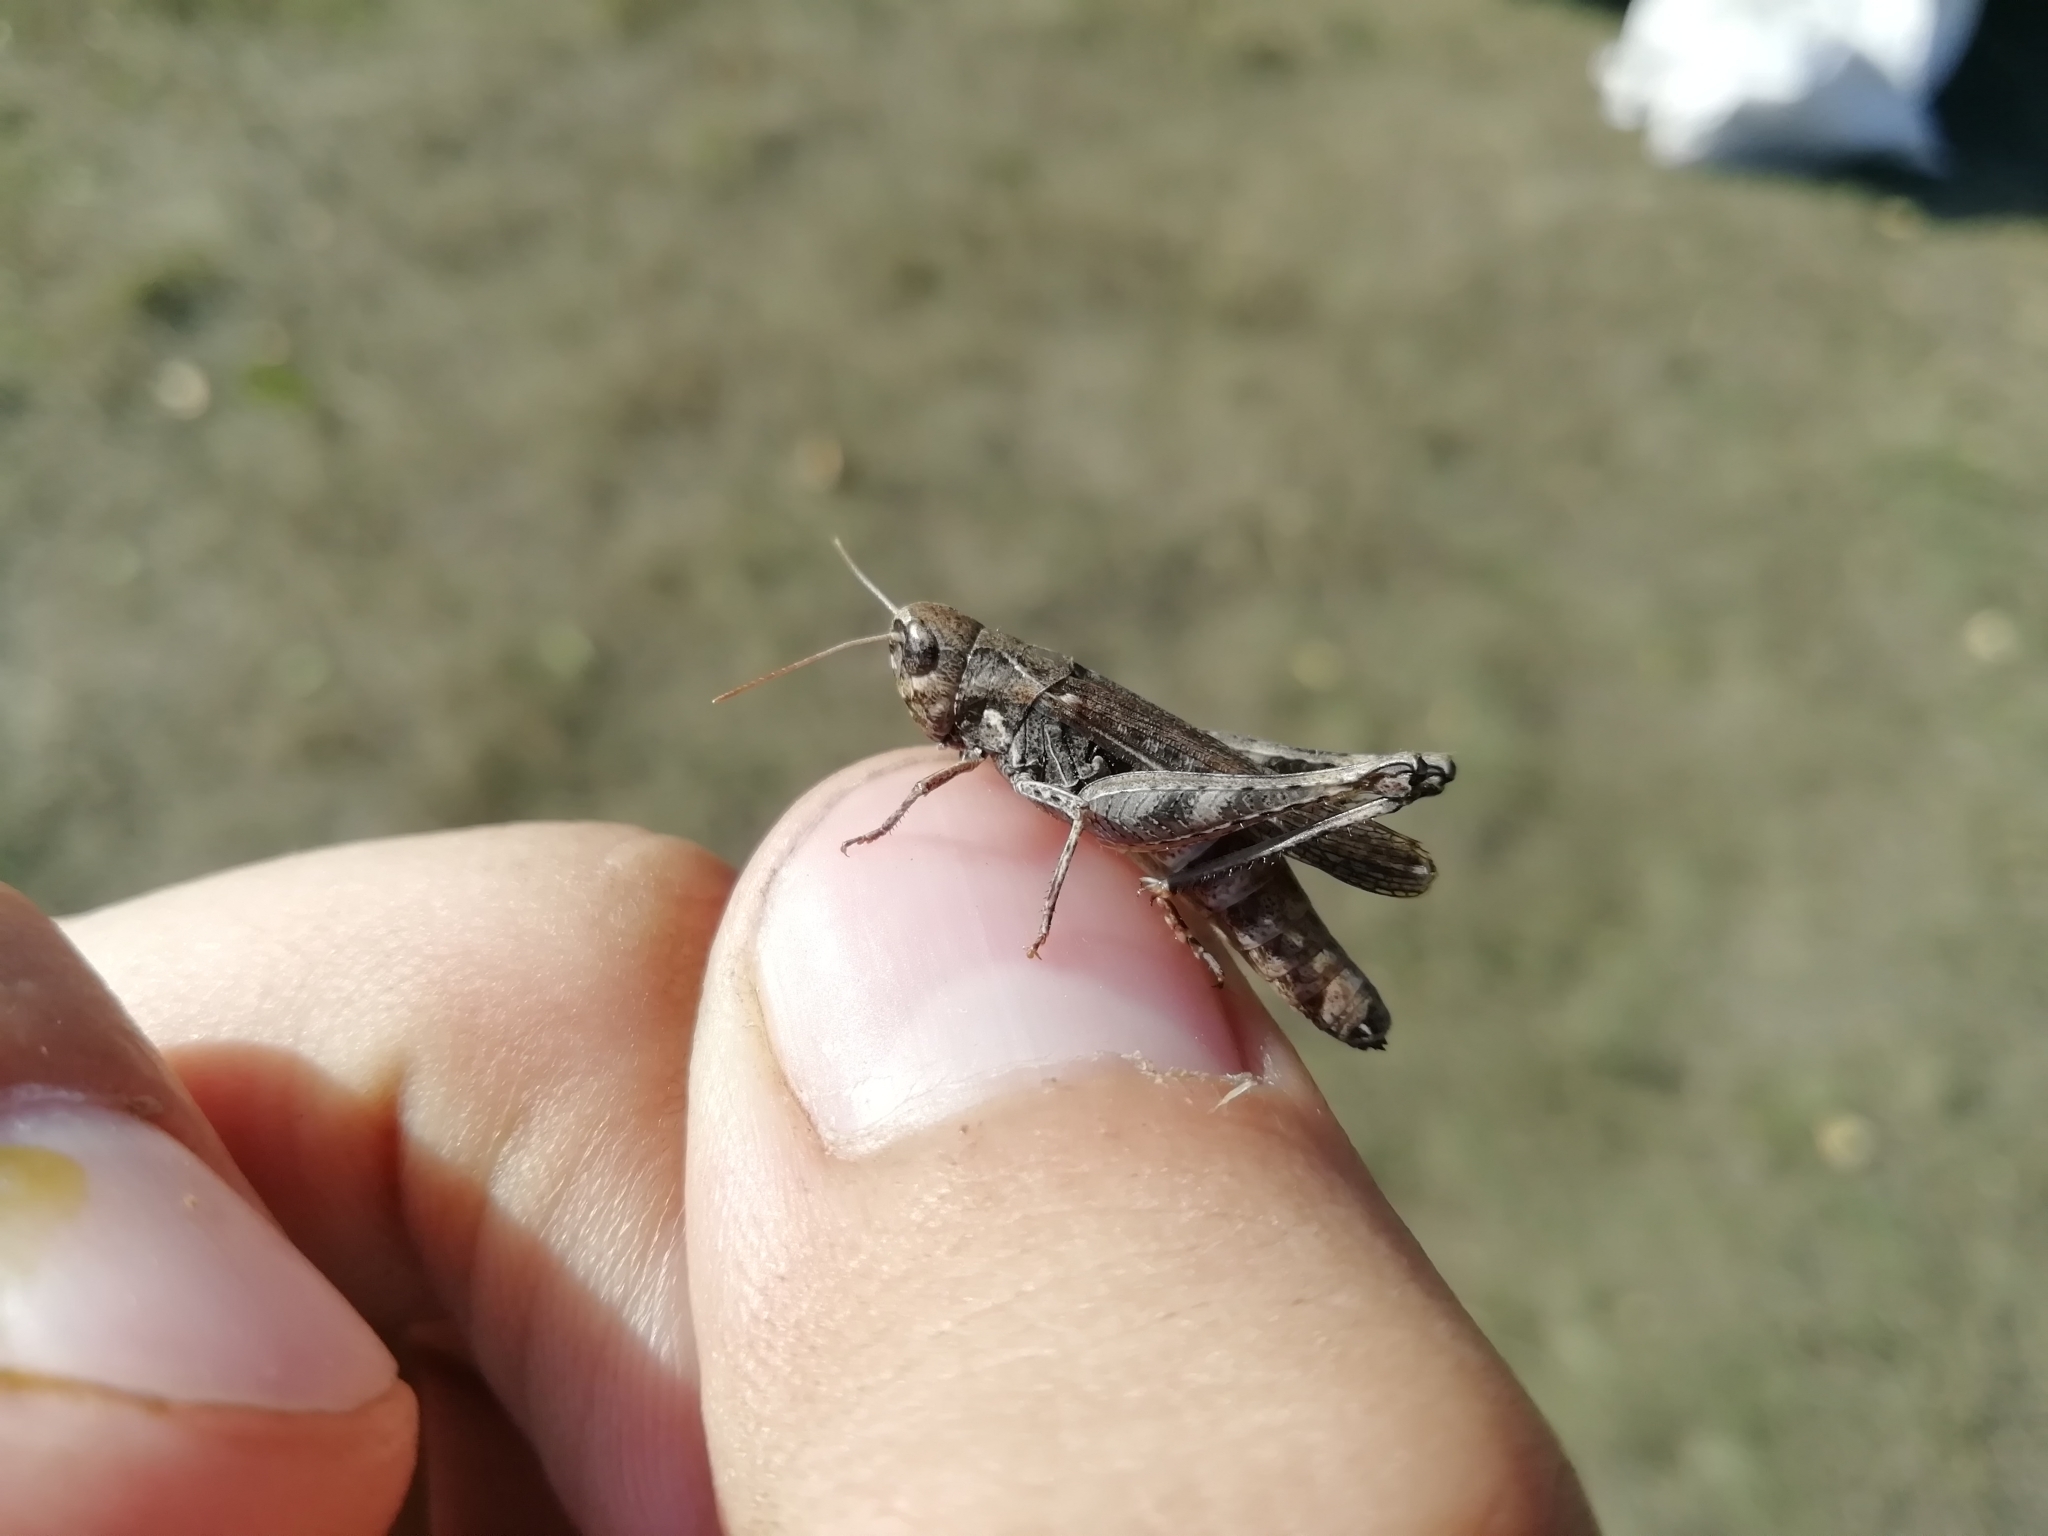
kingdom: Animalia
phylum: Arthropoda
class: Insecta
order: Orthoptera
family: Acrididae
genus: Omocestus
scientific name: Omocestus haemorrhoidalis
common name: Orange-tipped grasshopper
